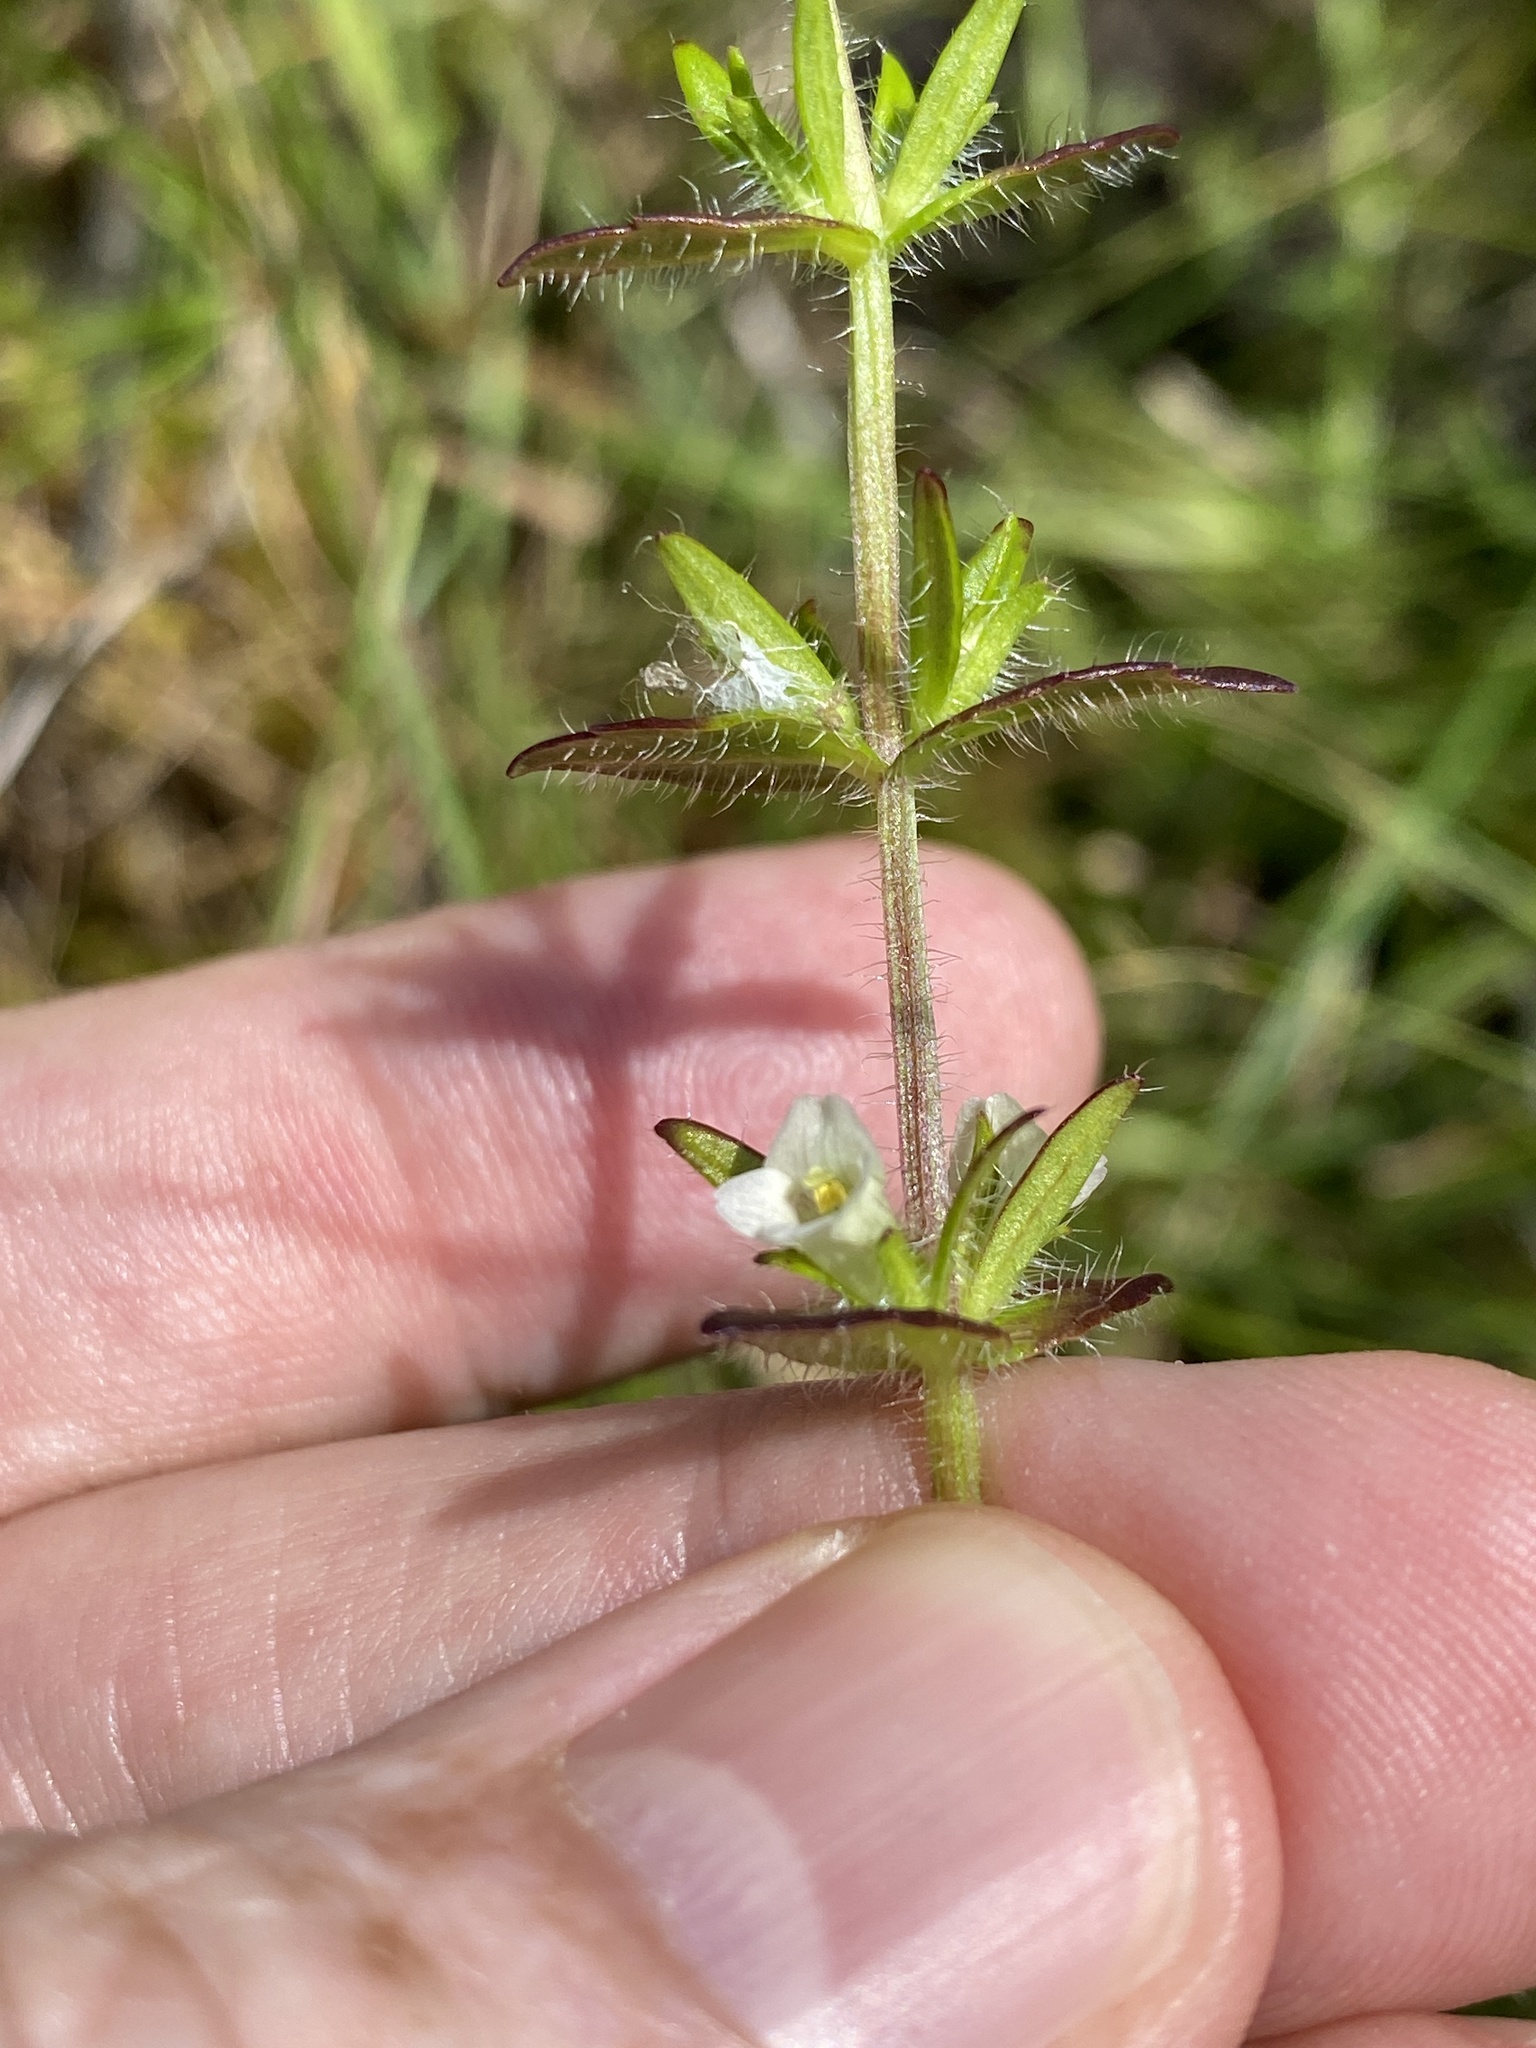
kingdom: Plantae
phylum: Tracheophyta
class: Magnoliopsida
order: Lamiales
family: Plantaginaceae
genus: Gratiola
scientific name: Gratiola pilosa
